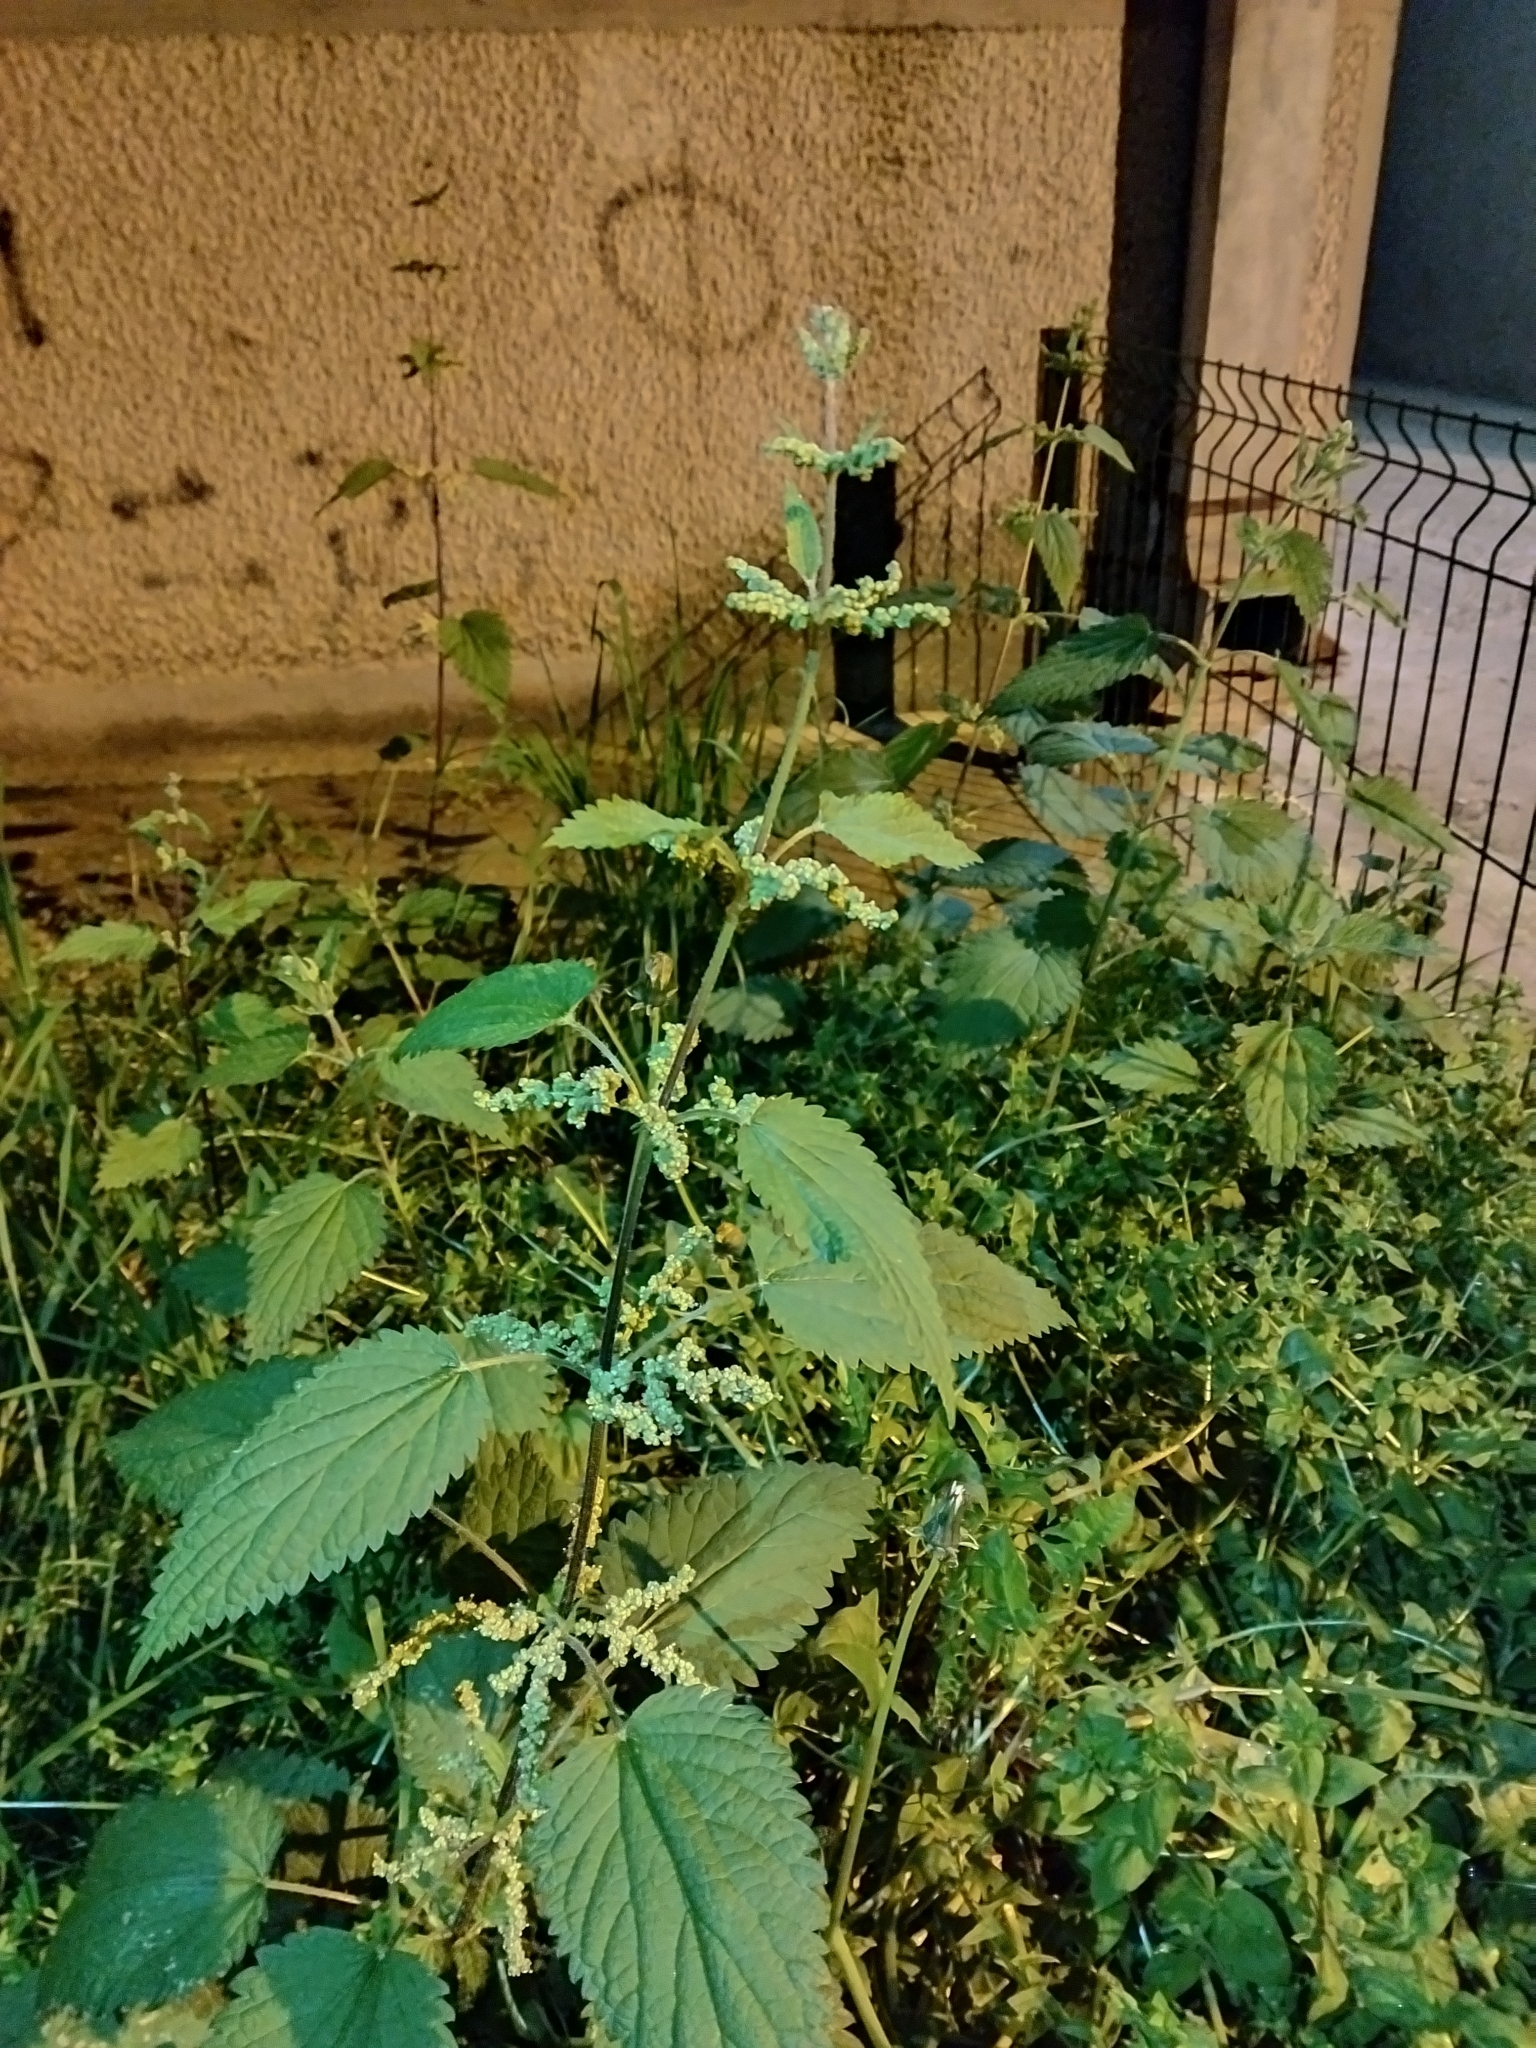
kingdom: Plantae
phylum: Tracheophyta
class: Magnoliopsida
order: Rosales
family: Urticaceae
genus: Urtica
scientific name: Urtica dioica
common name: Common nettle
